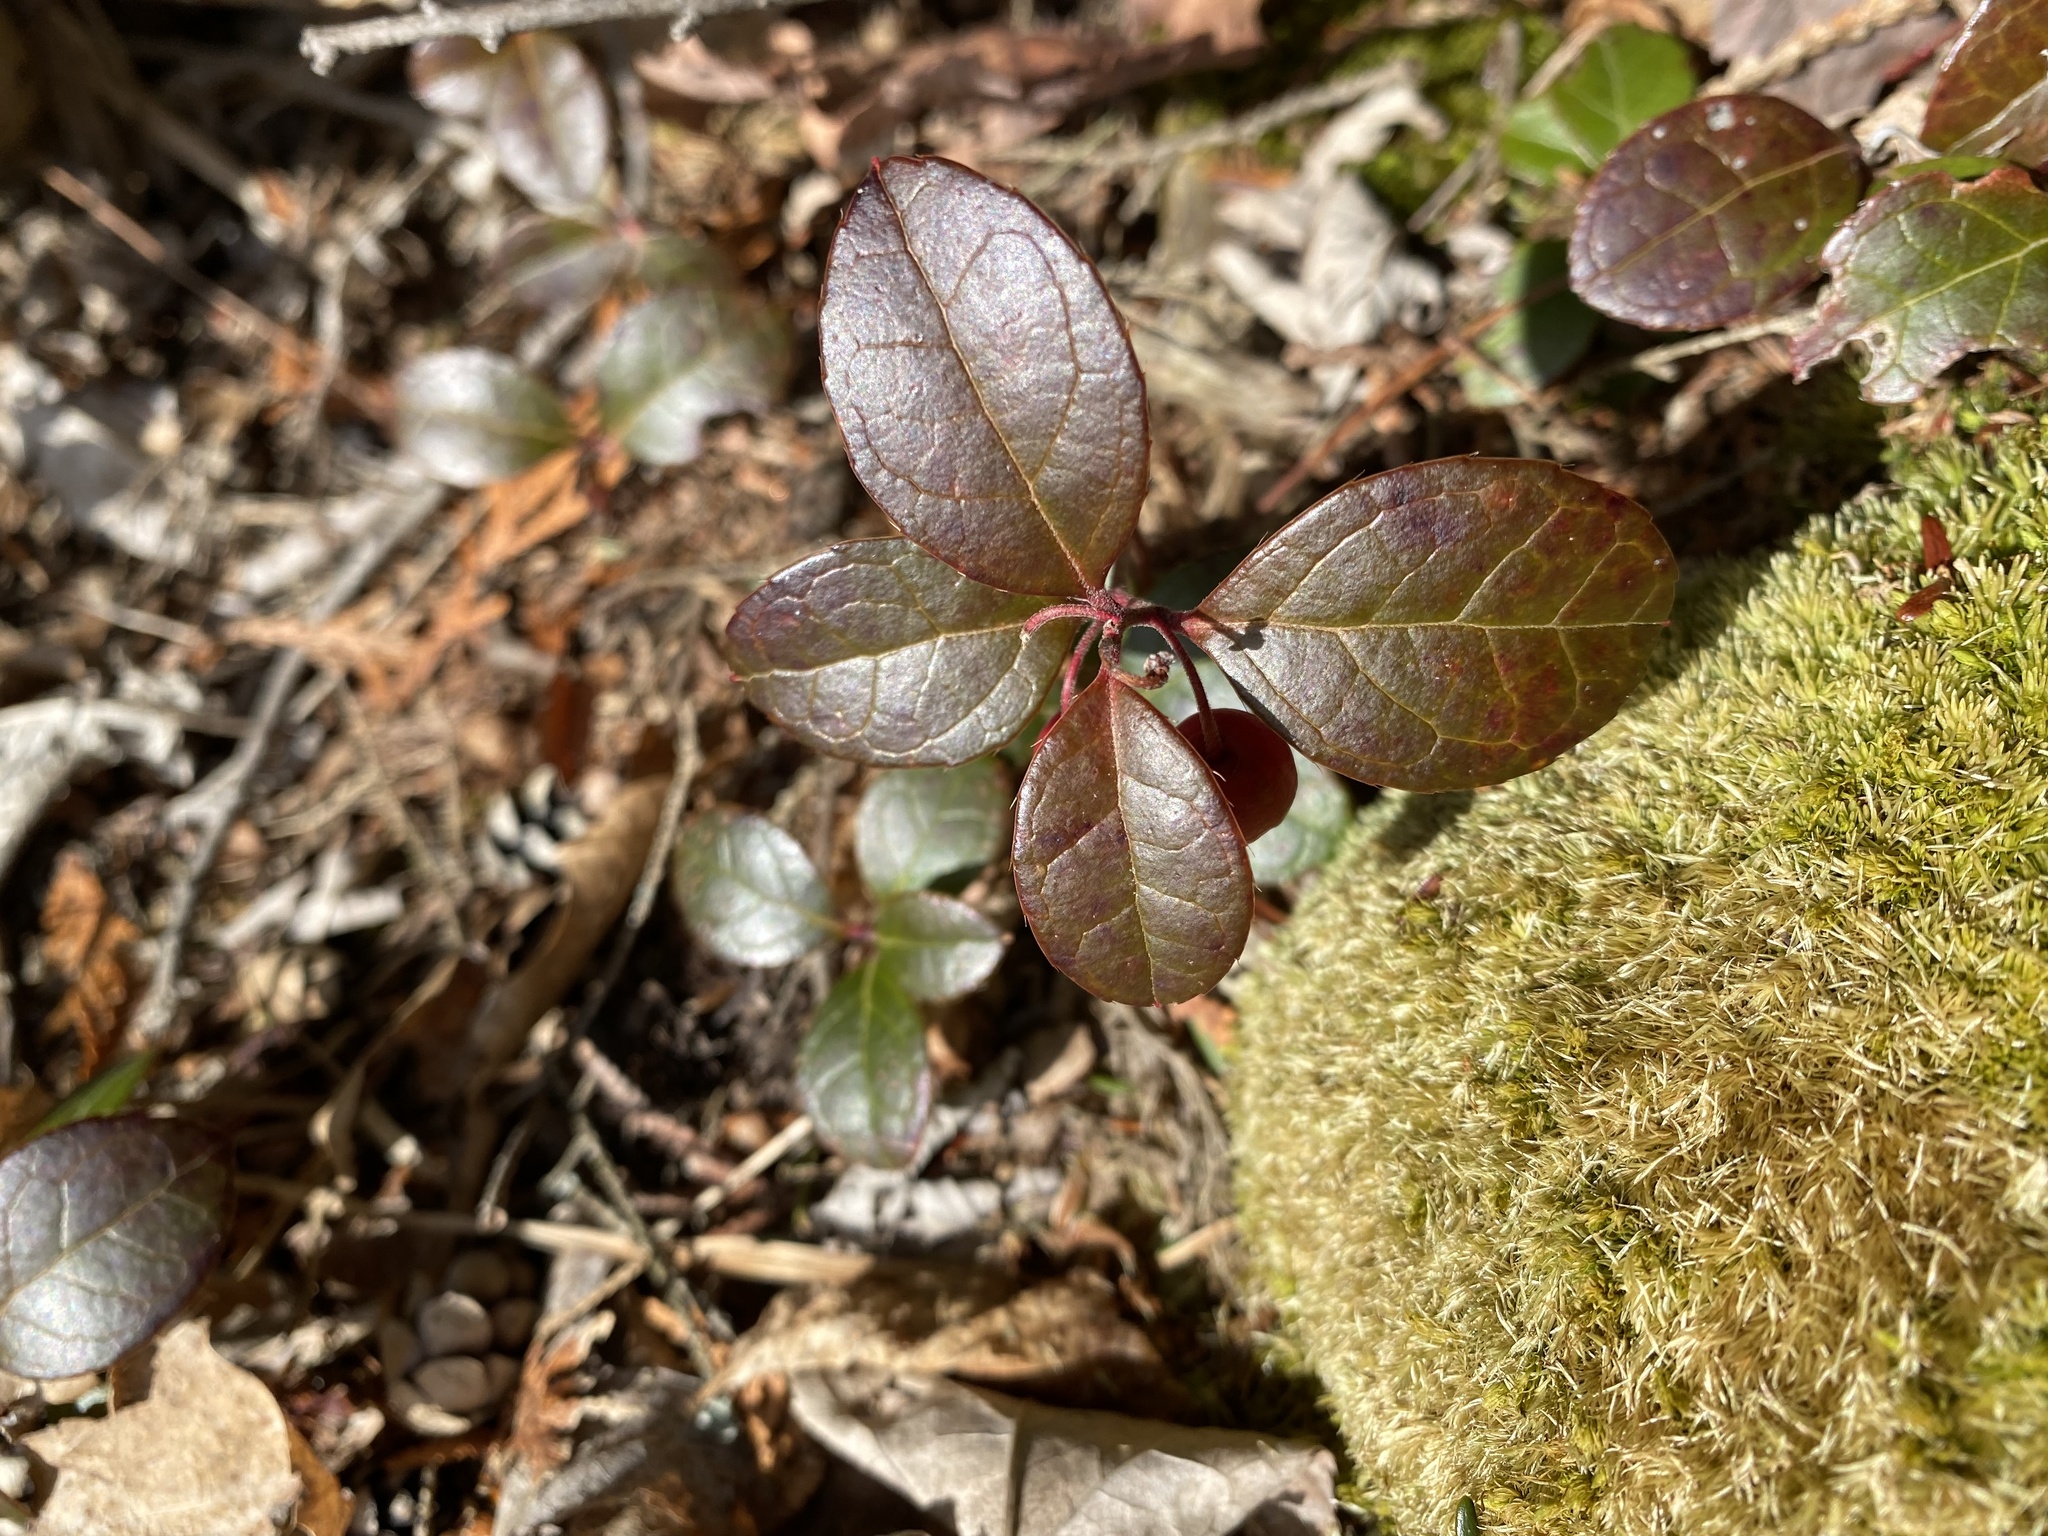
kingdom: Plantae
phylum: Tracheophyta
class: Magnoliopsida
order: Ericales
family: Ericaceae
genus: Gaultheria
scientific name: Gaultheria procumbens
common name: Checkerberry
